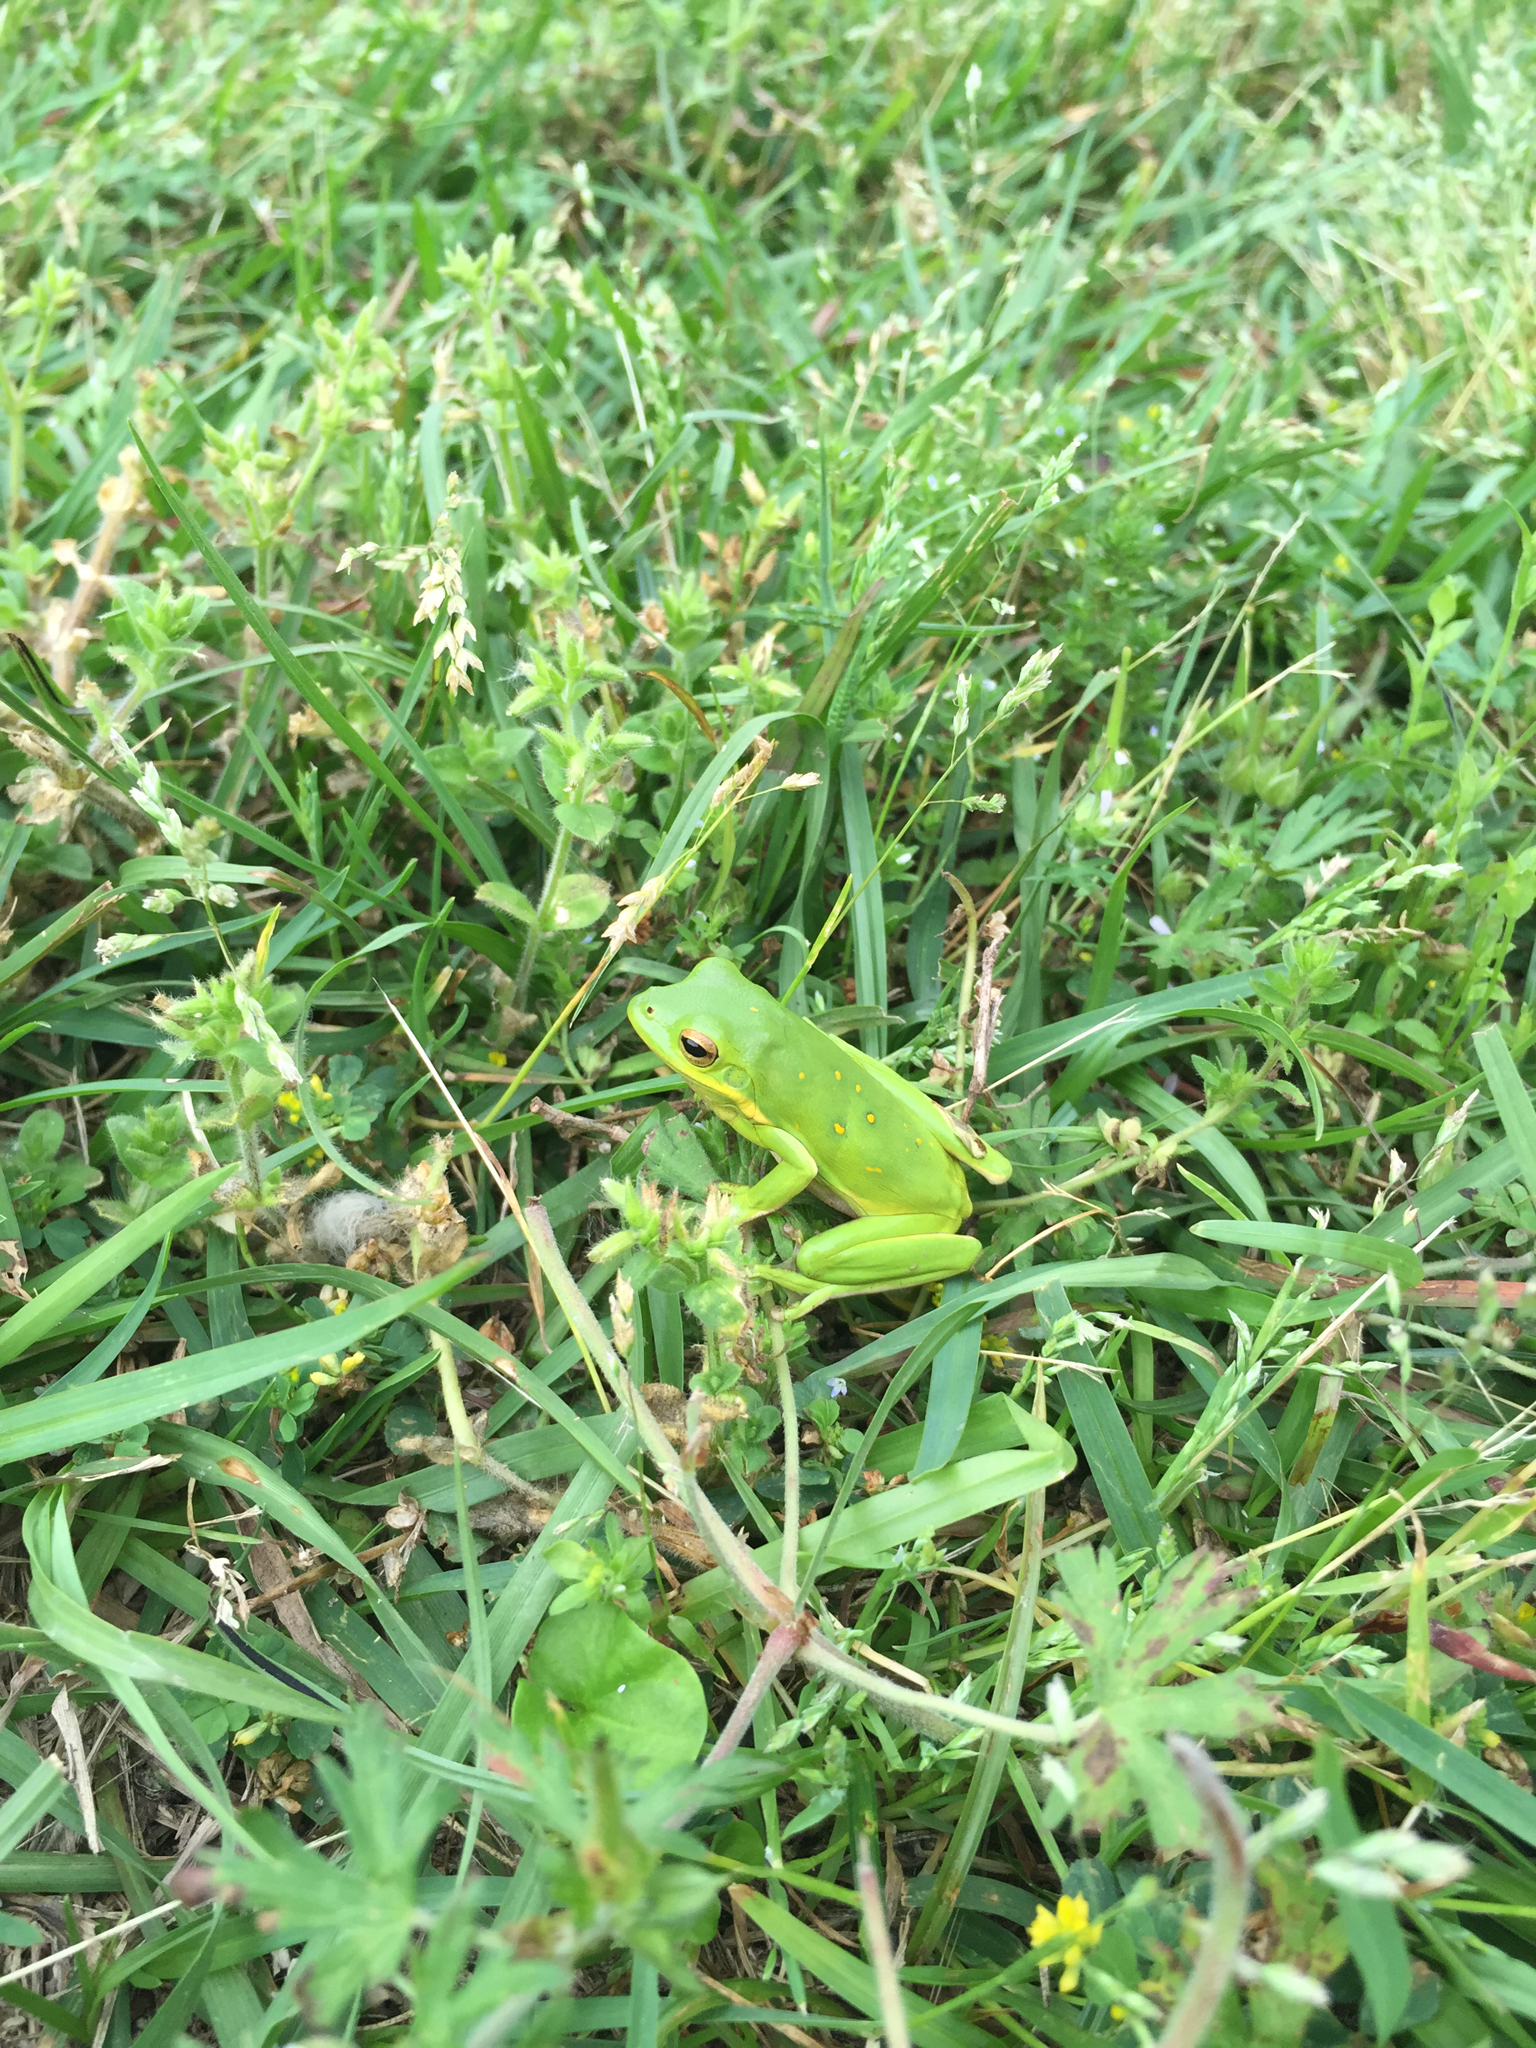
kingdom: Animalia
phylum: Chordata
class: Amphibia
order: Anura
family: Hylidae
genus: Dryophytes
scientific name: Dryophytes cinereus
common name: Green treefrog
